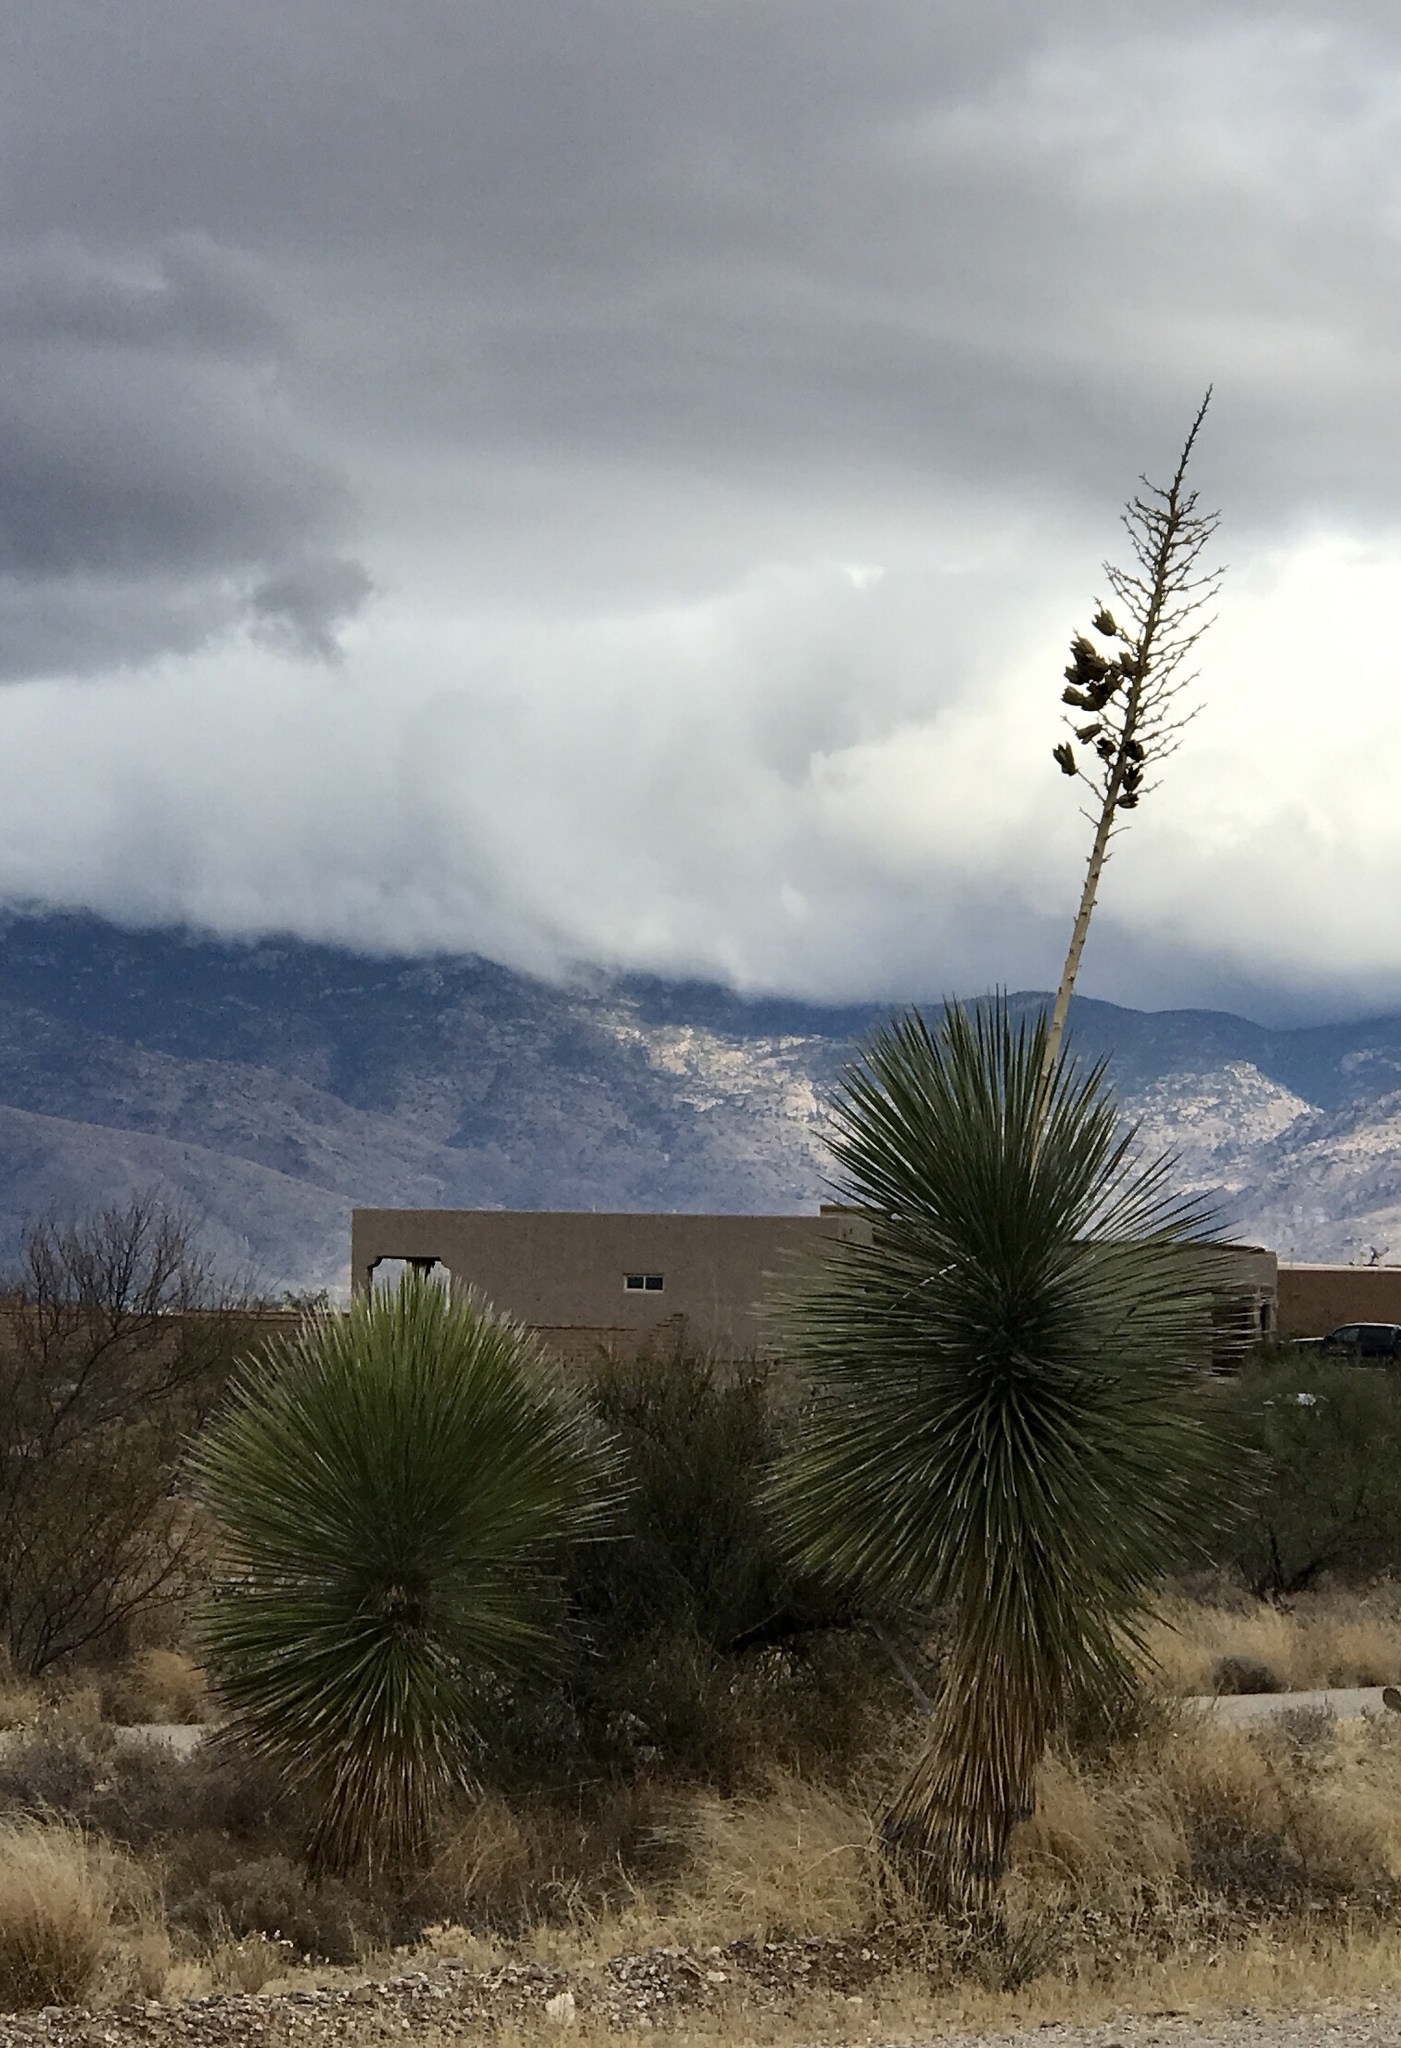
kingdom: Plantae
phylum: Tracheophyta
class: Liliopsida
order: Asparagales
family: Asparagaceae
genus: Yucca
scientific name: Yucca elata
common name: Palmella
